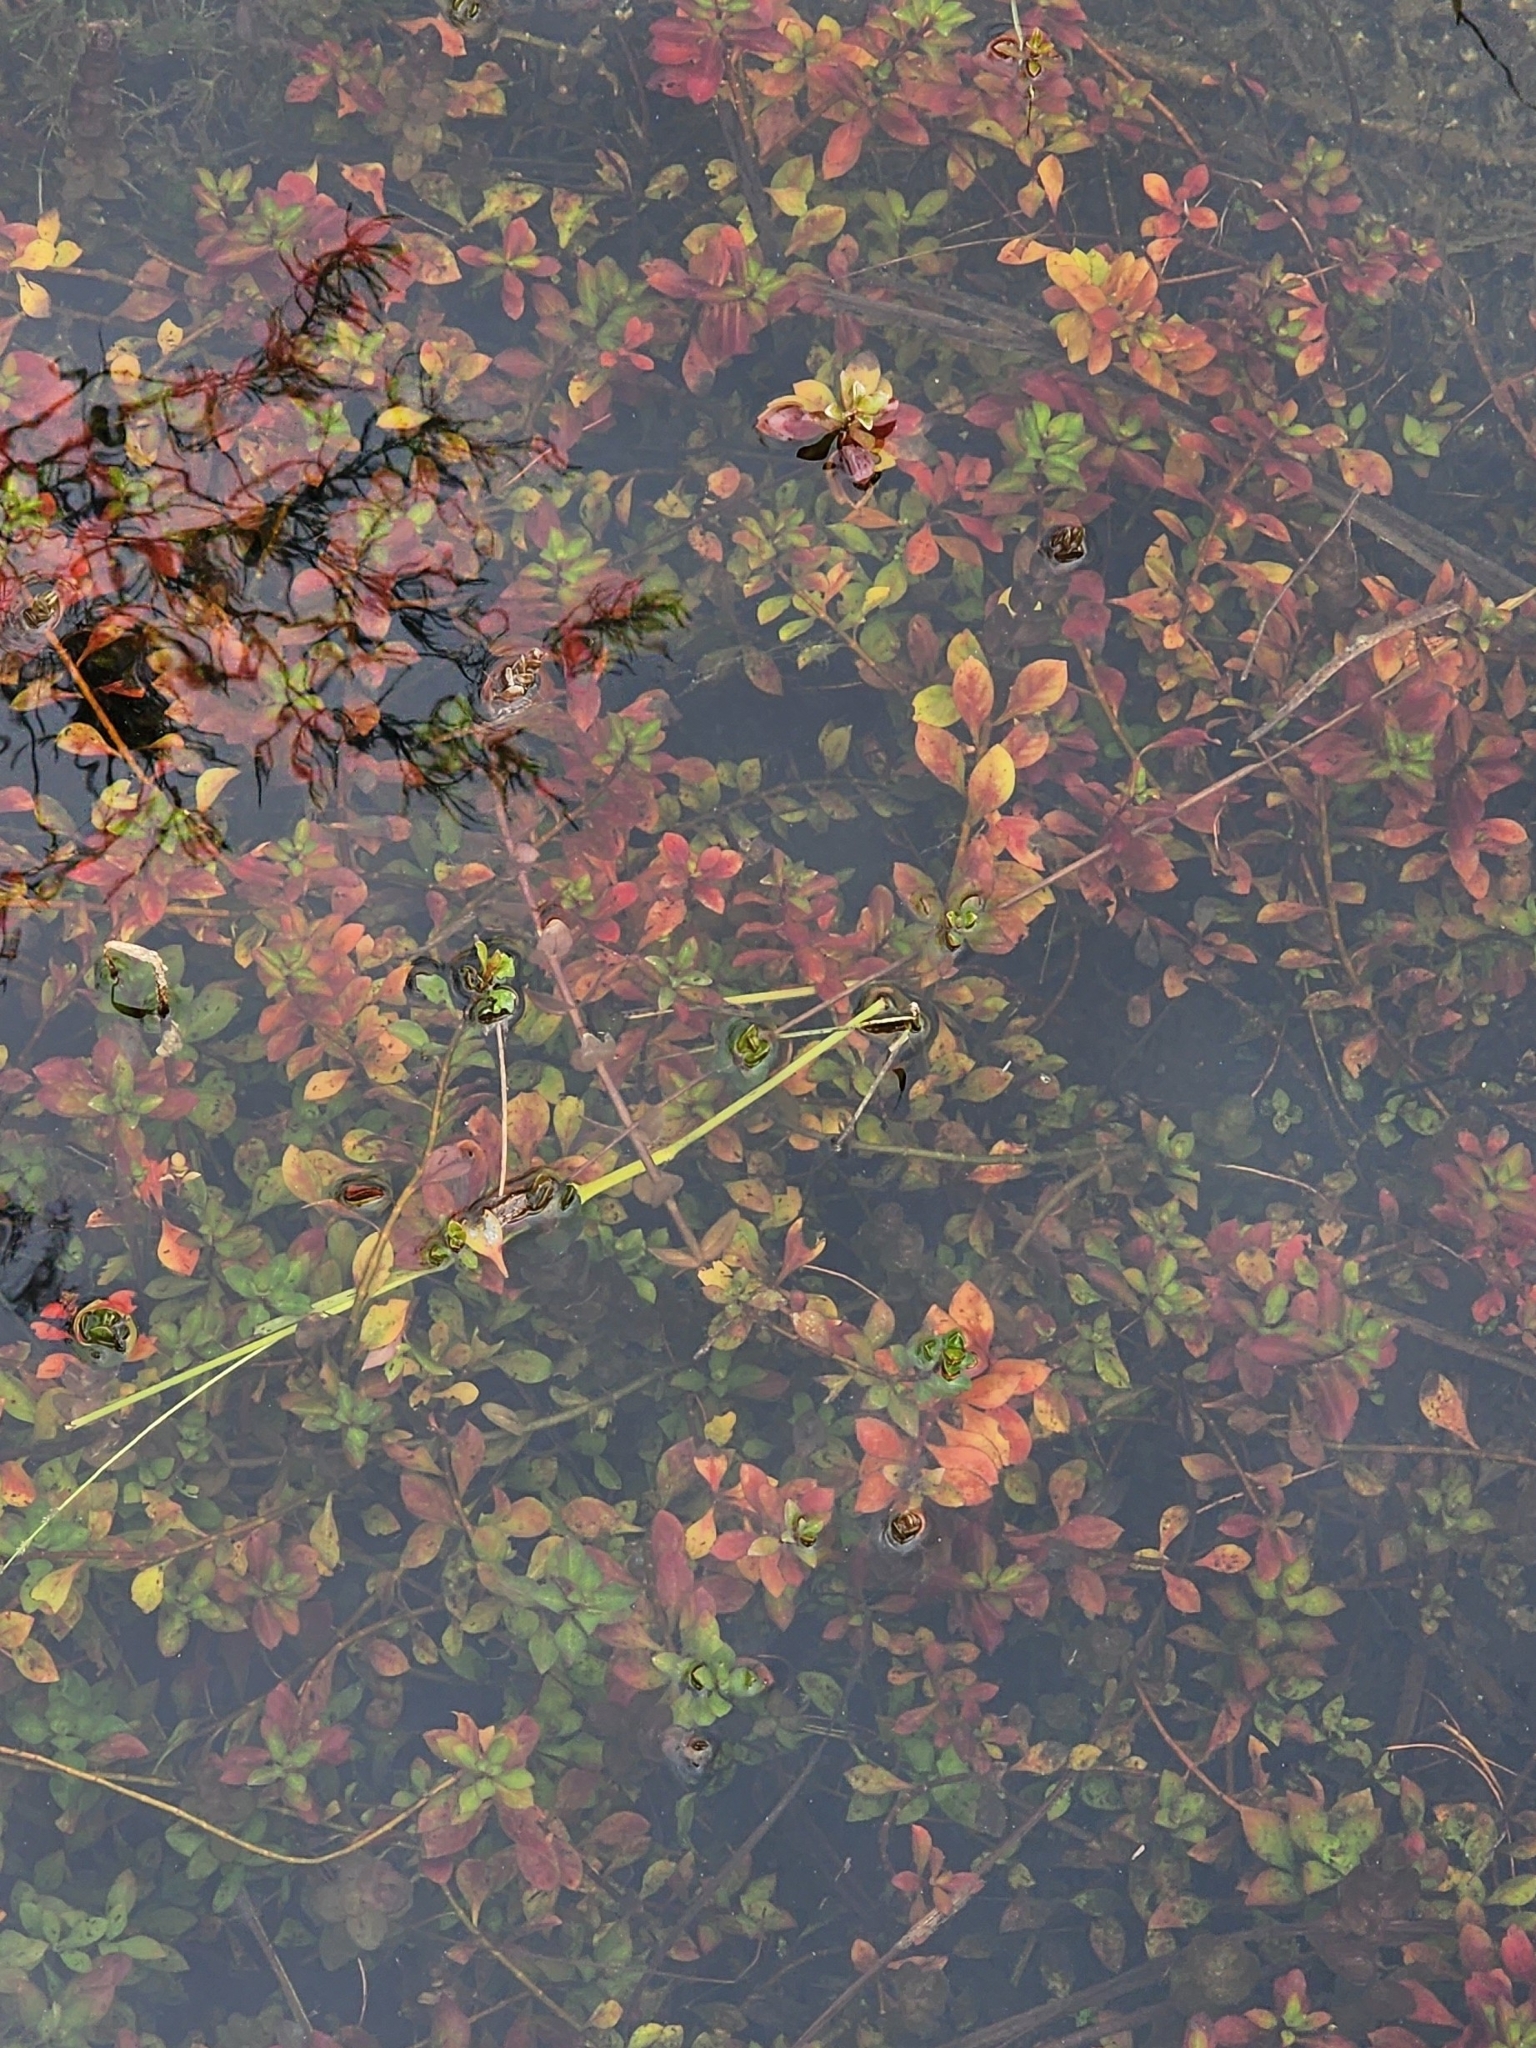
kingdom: Plantae
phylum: Tracheophyta
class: Magnoliopsida
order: Myrtales
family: Onagraceae
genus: Ludwigia
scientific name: Ludwigia repens
